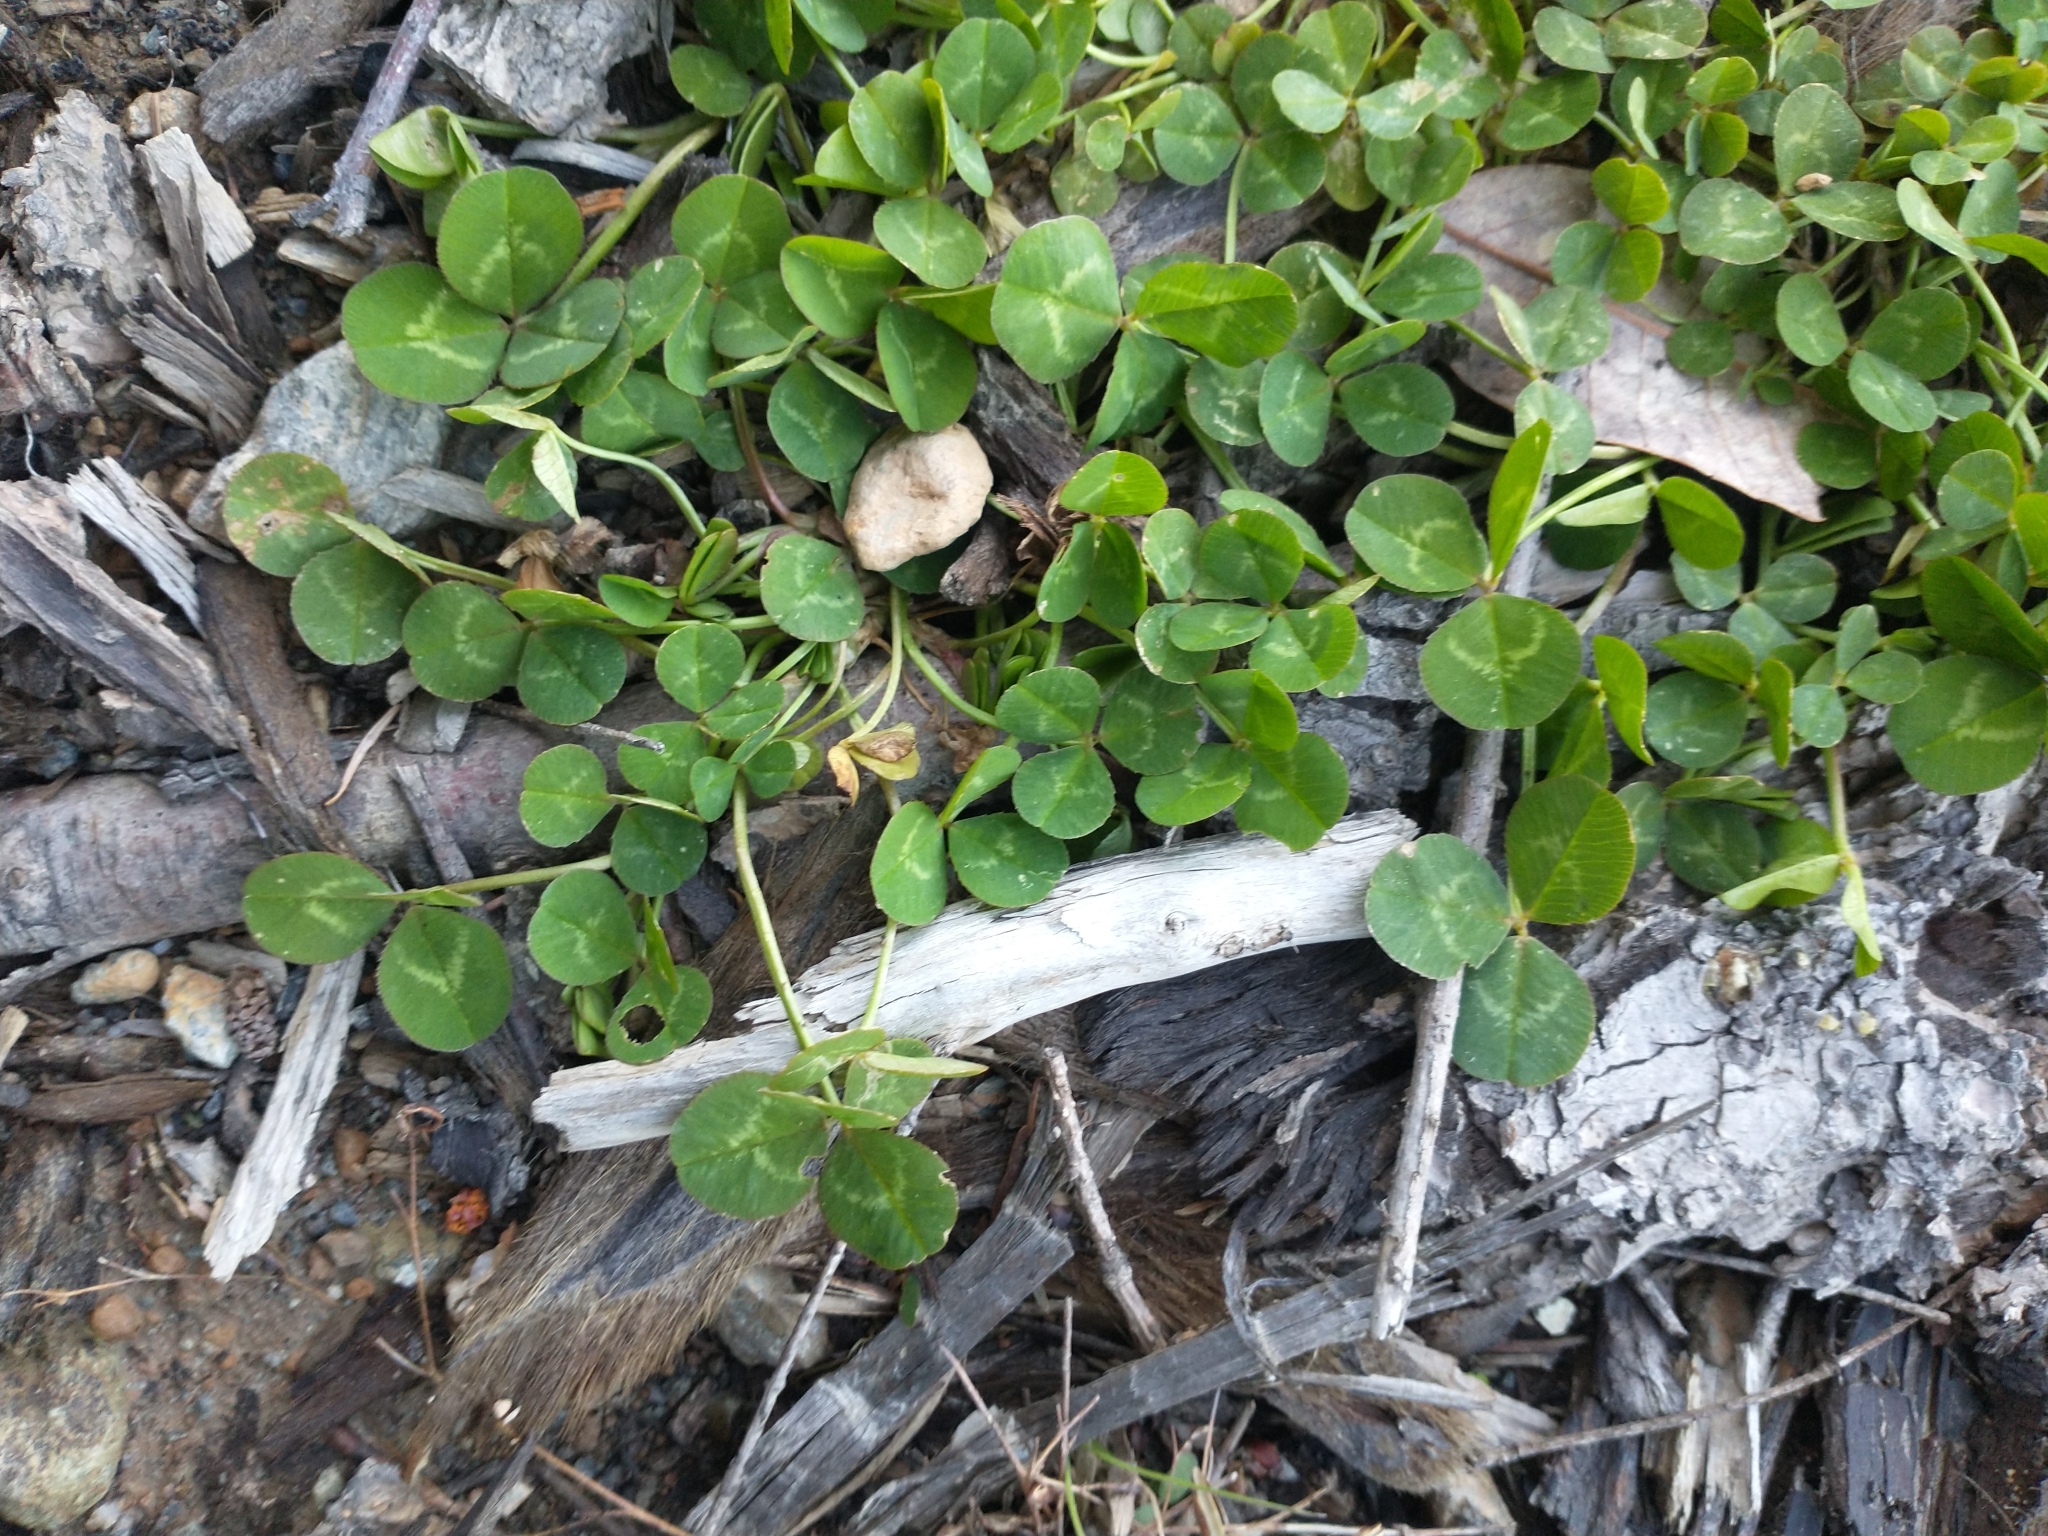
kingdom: Plantae
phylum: Tracheophyta
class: Magnoliopsida
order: Fabales
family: Fabaceae
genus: Trifolium
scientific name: Trifolium repens
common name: White clover
